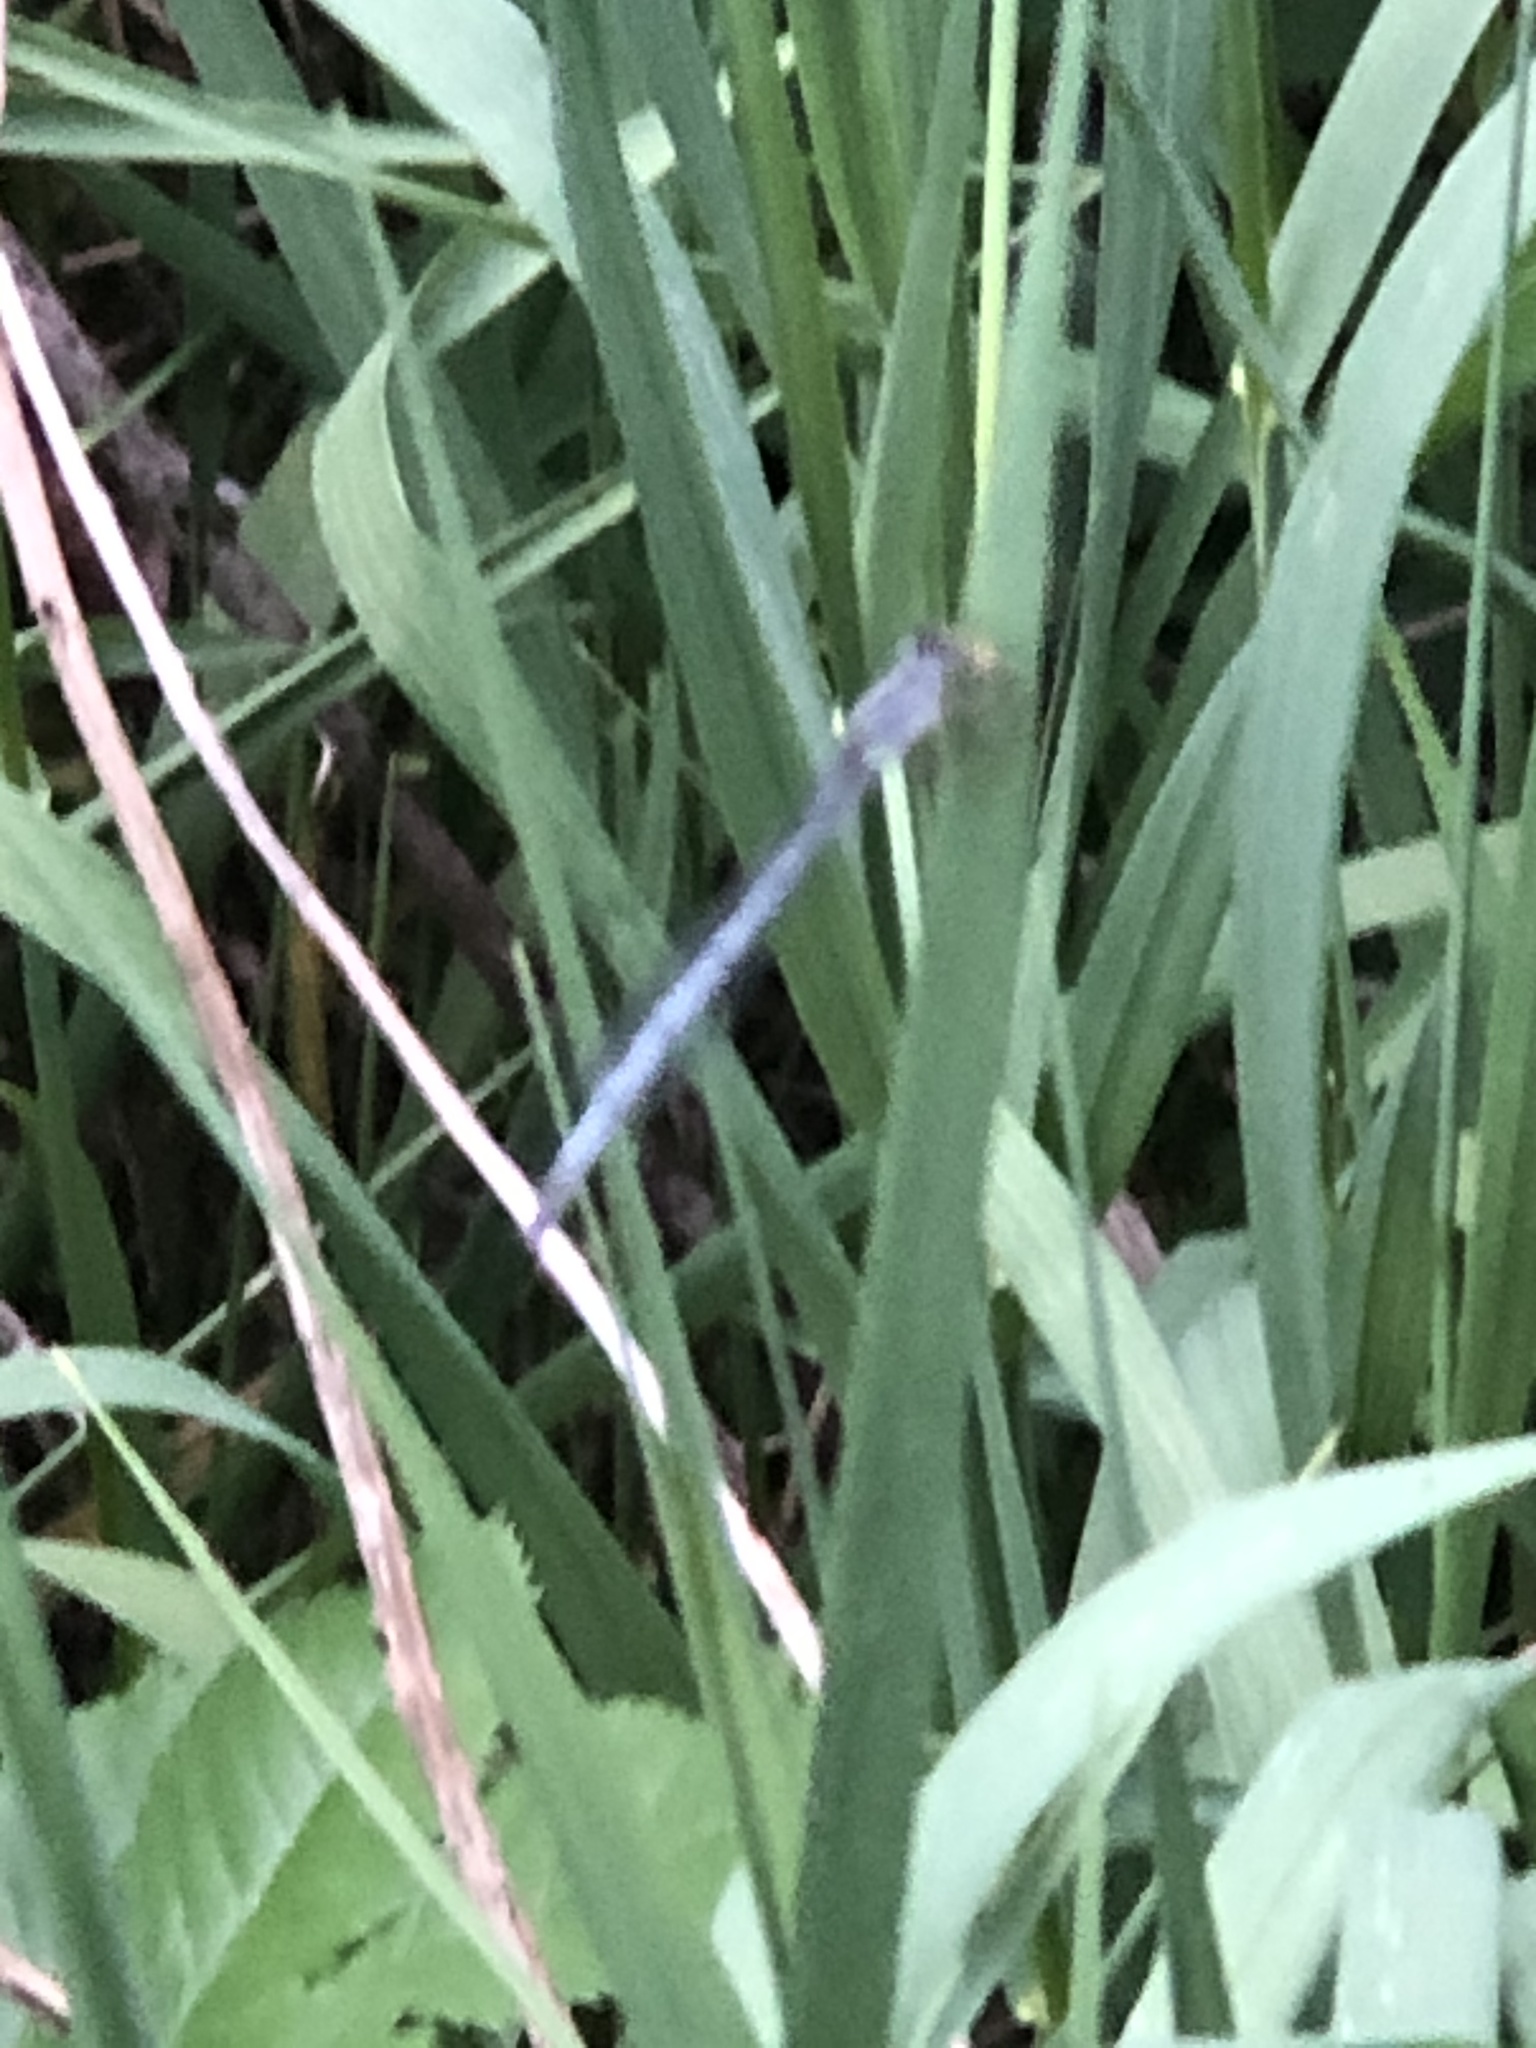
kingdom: Animalia
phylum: Arthropoda
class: Insecta
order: Odonata
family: Coenagrionidae
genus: Ischnura
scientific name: Ischnura verticalis
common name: Eastern forktail
